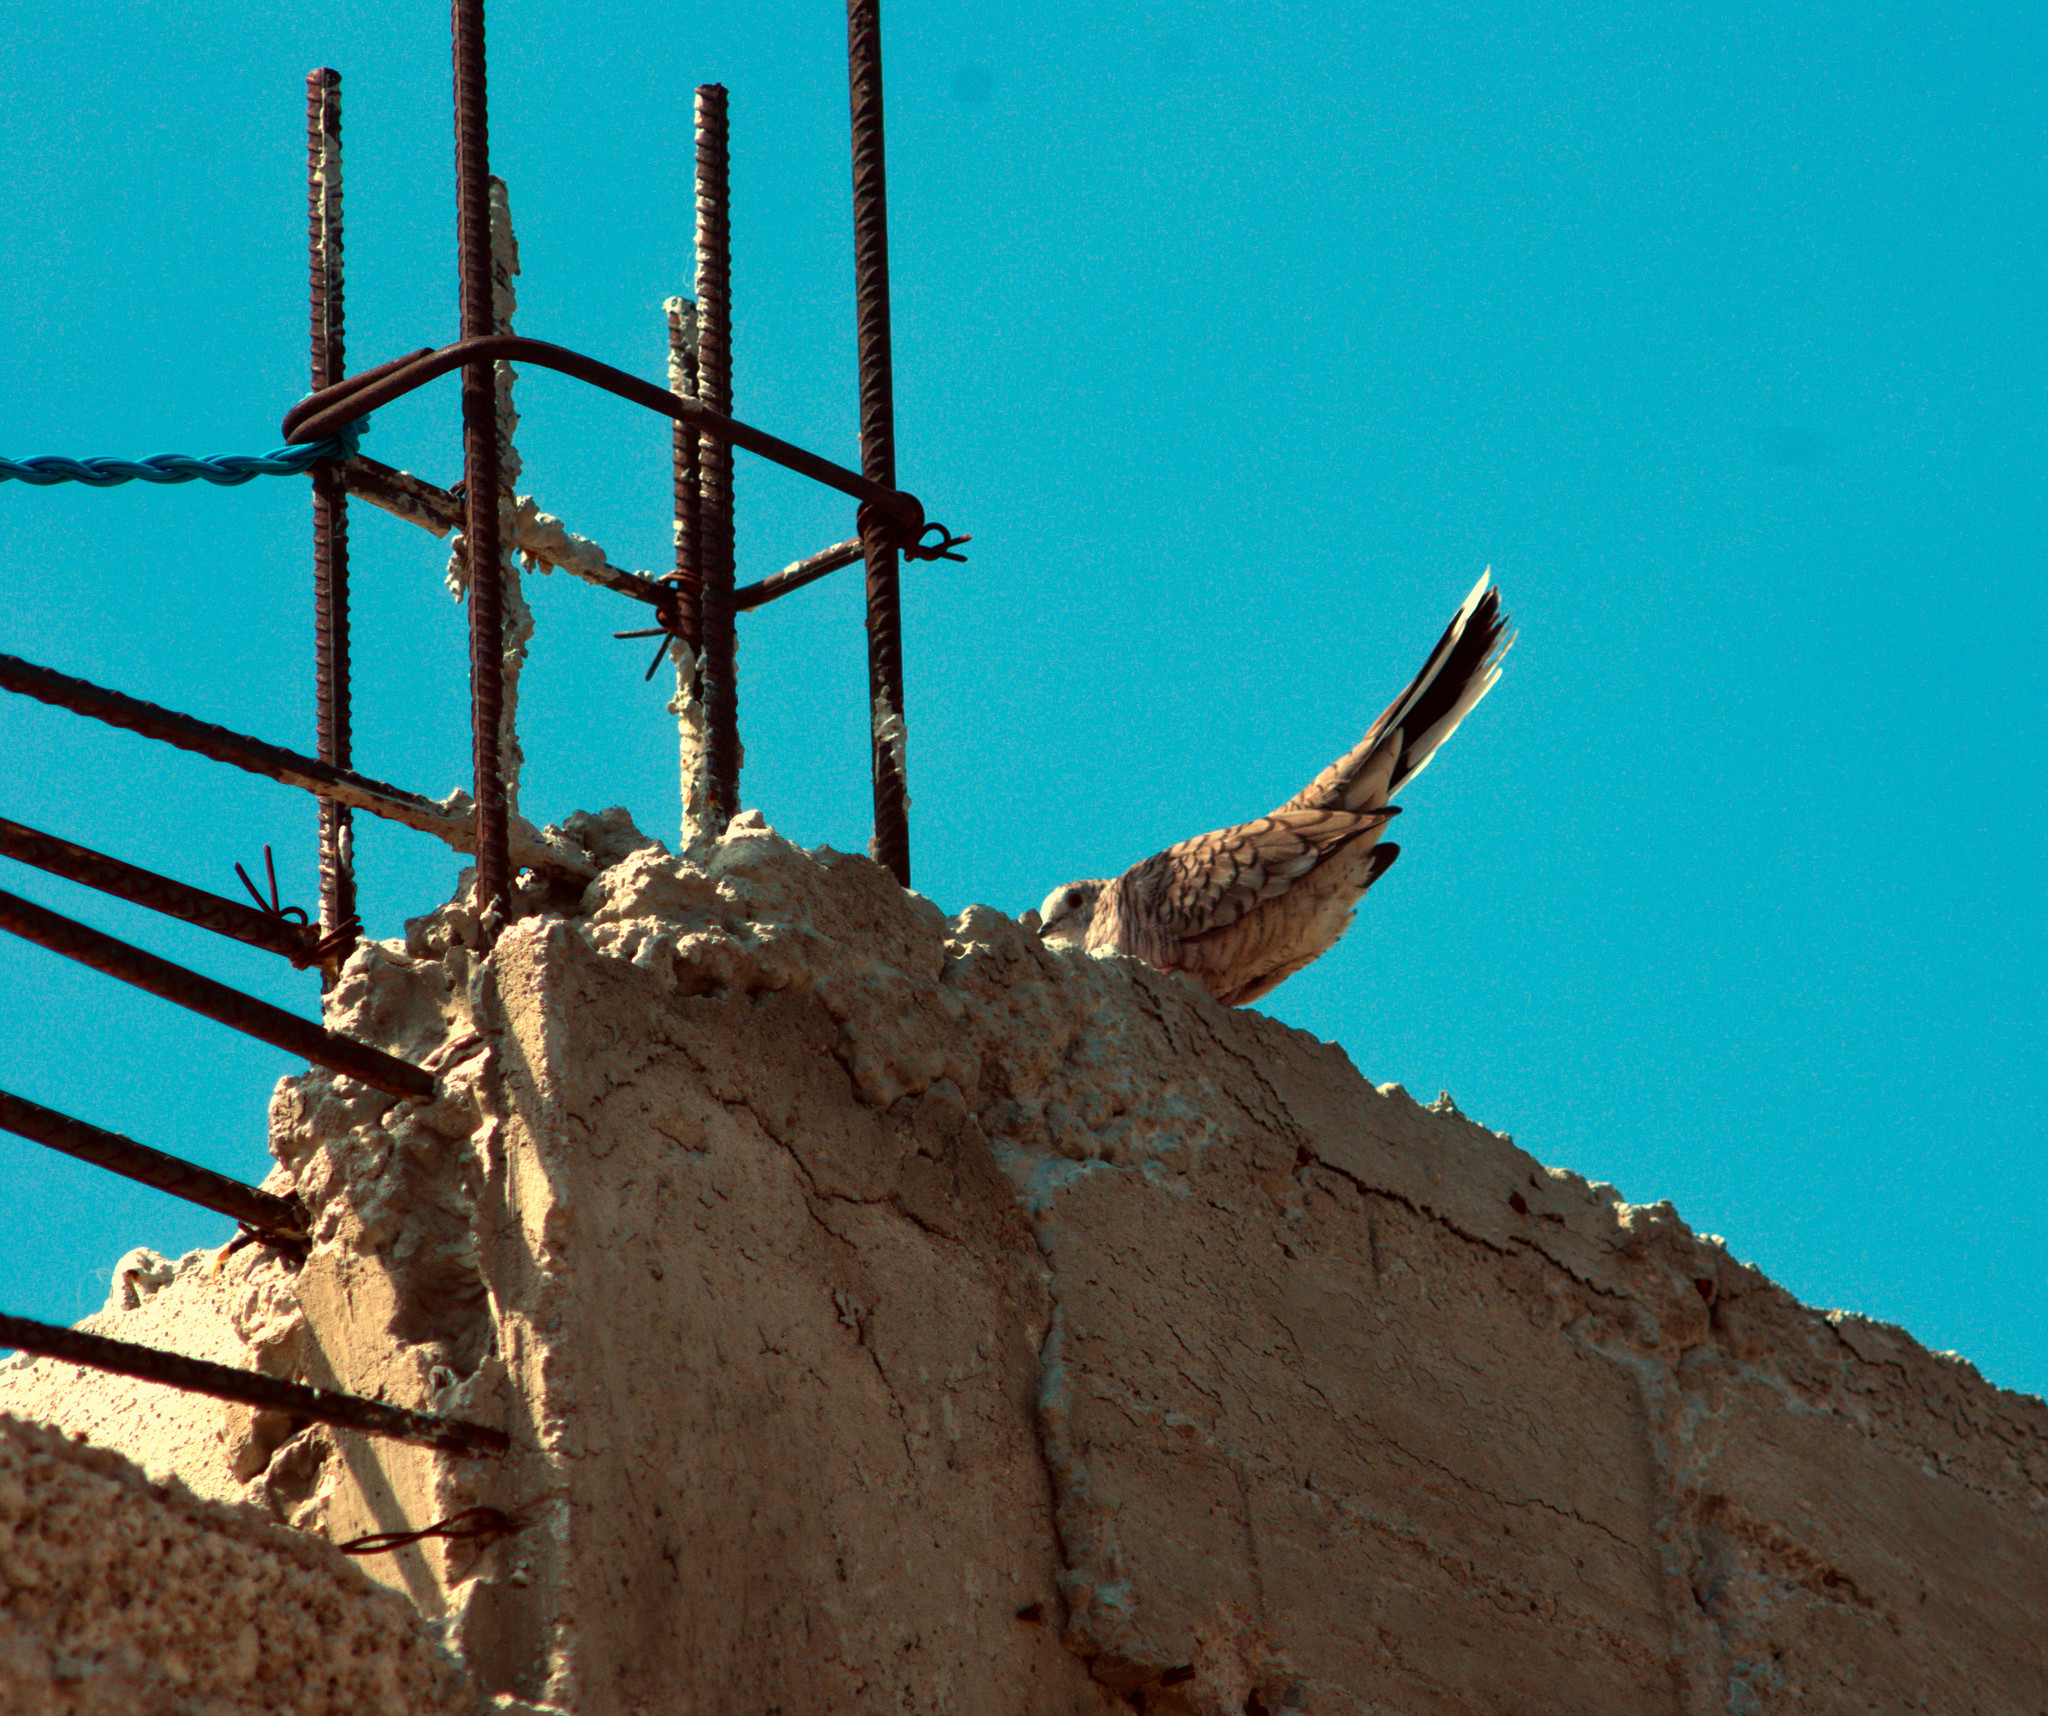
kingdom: Animalia
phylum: Chordata
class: Aves
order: Columbiformes
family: Columbidae
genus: Columbina
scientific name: Columbina inca
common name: Inca dove
